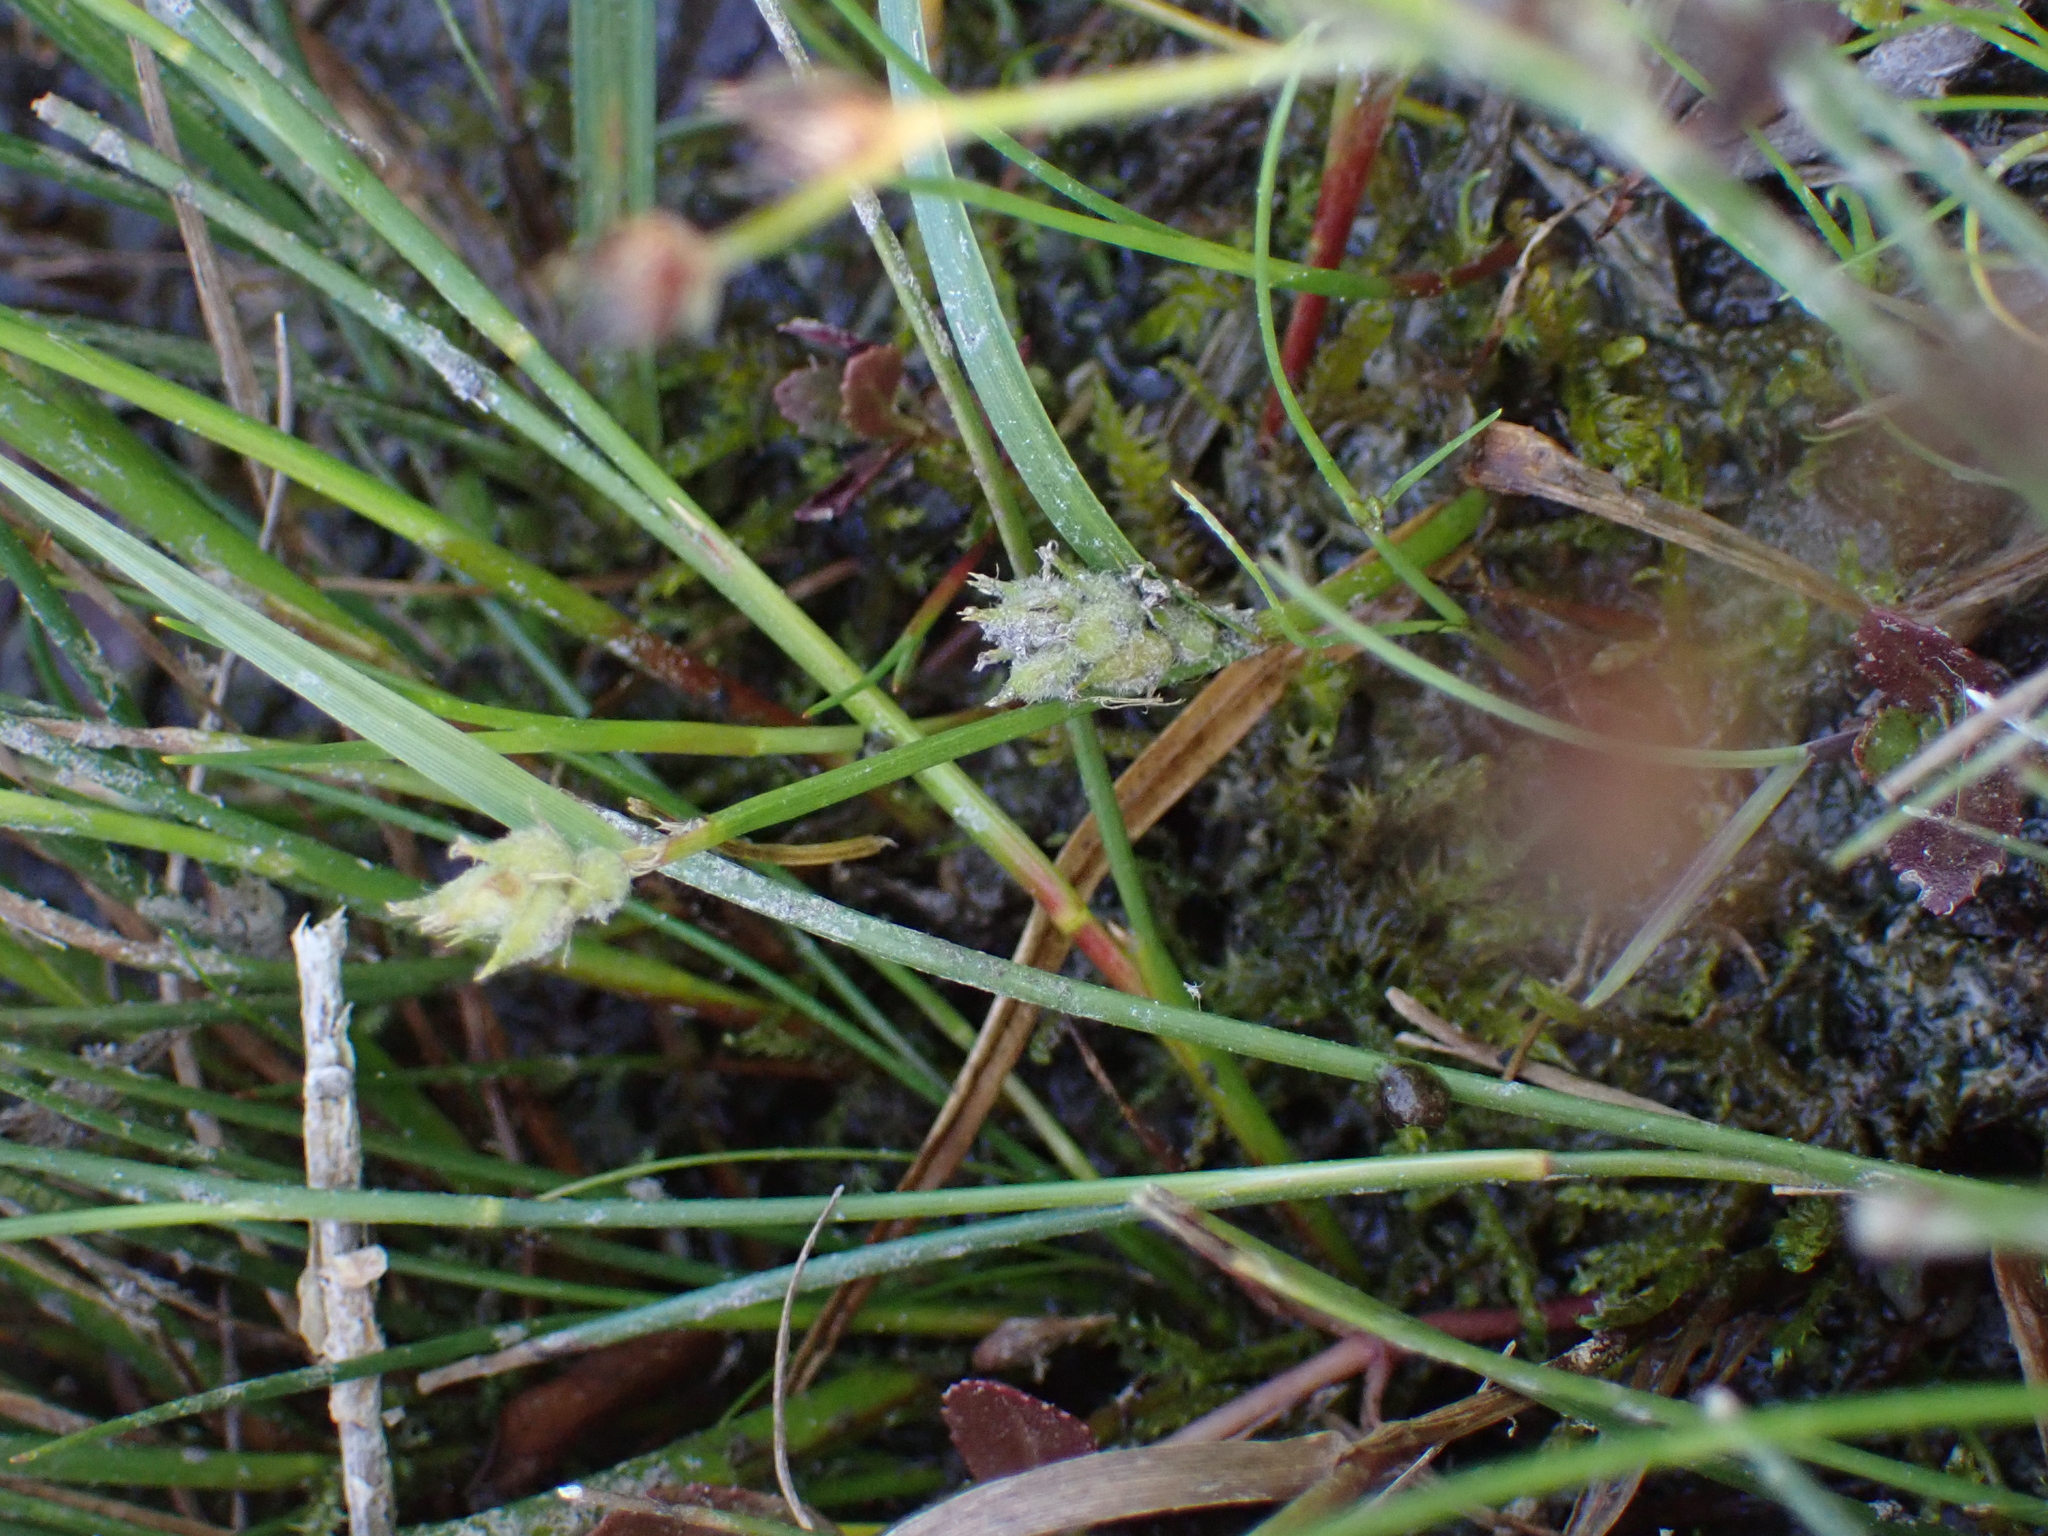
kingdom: Plantae
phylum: Tracheophyta
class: Liliopsida
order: Poales
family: Cyperaceae
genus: Carex
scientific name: Carex hirta
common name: Hairy sedge
